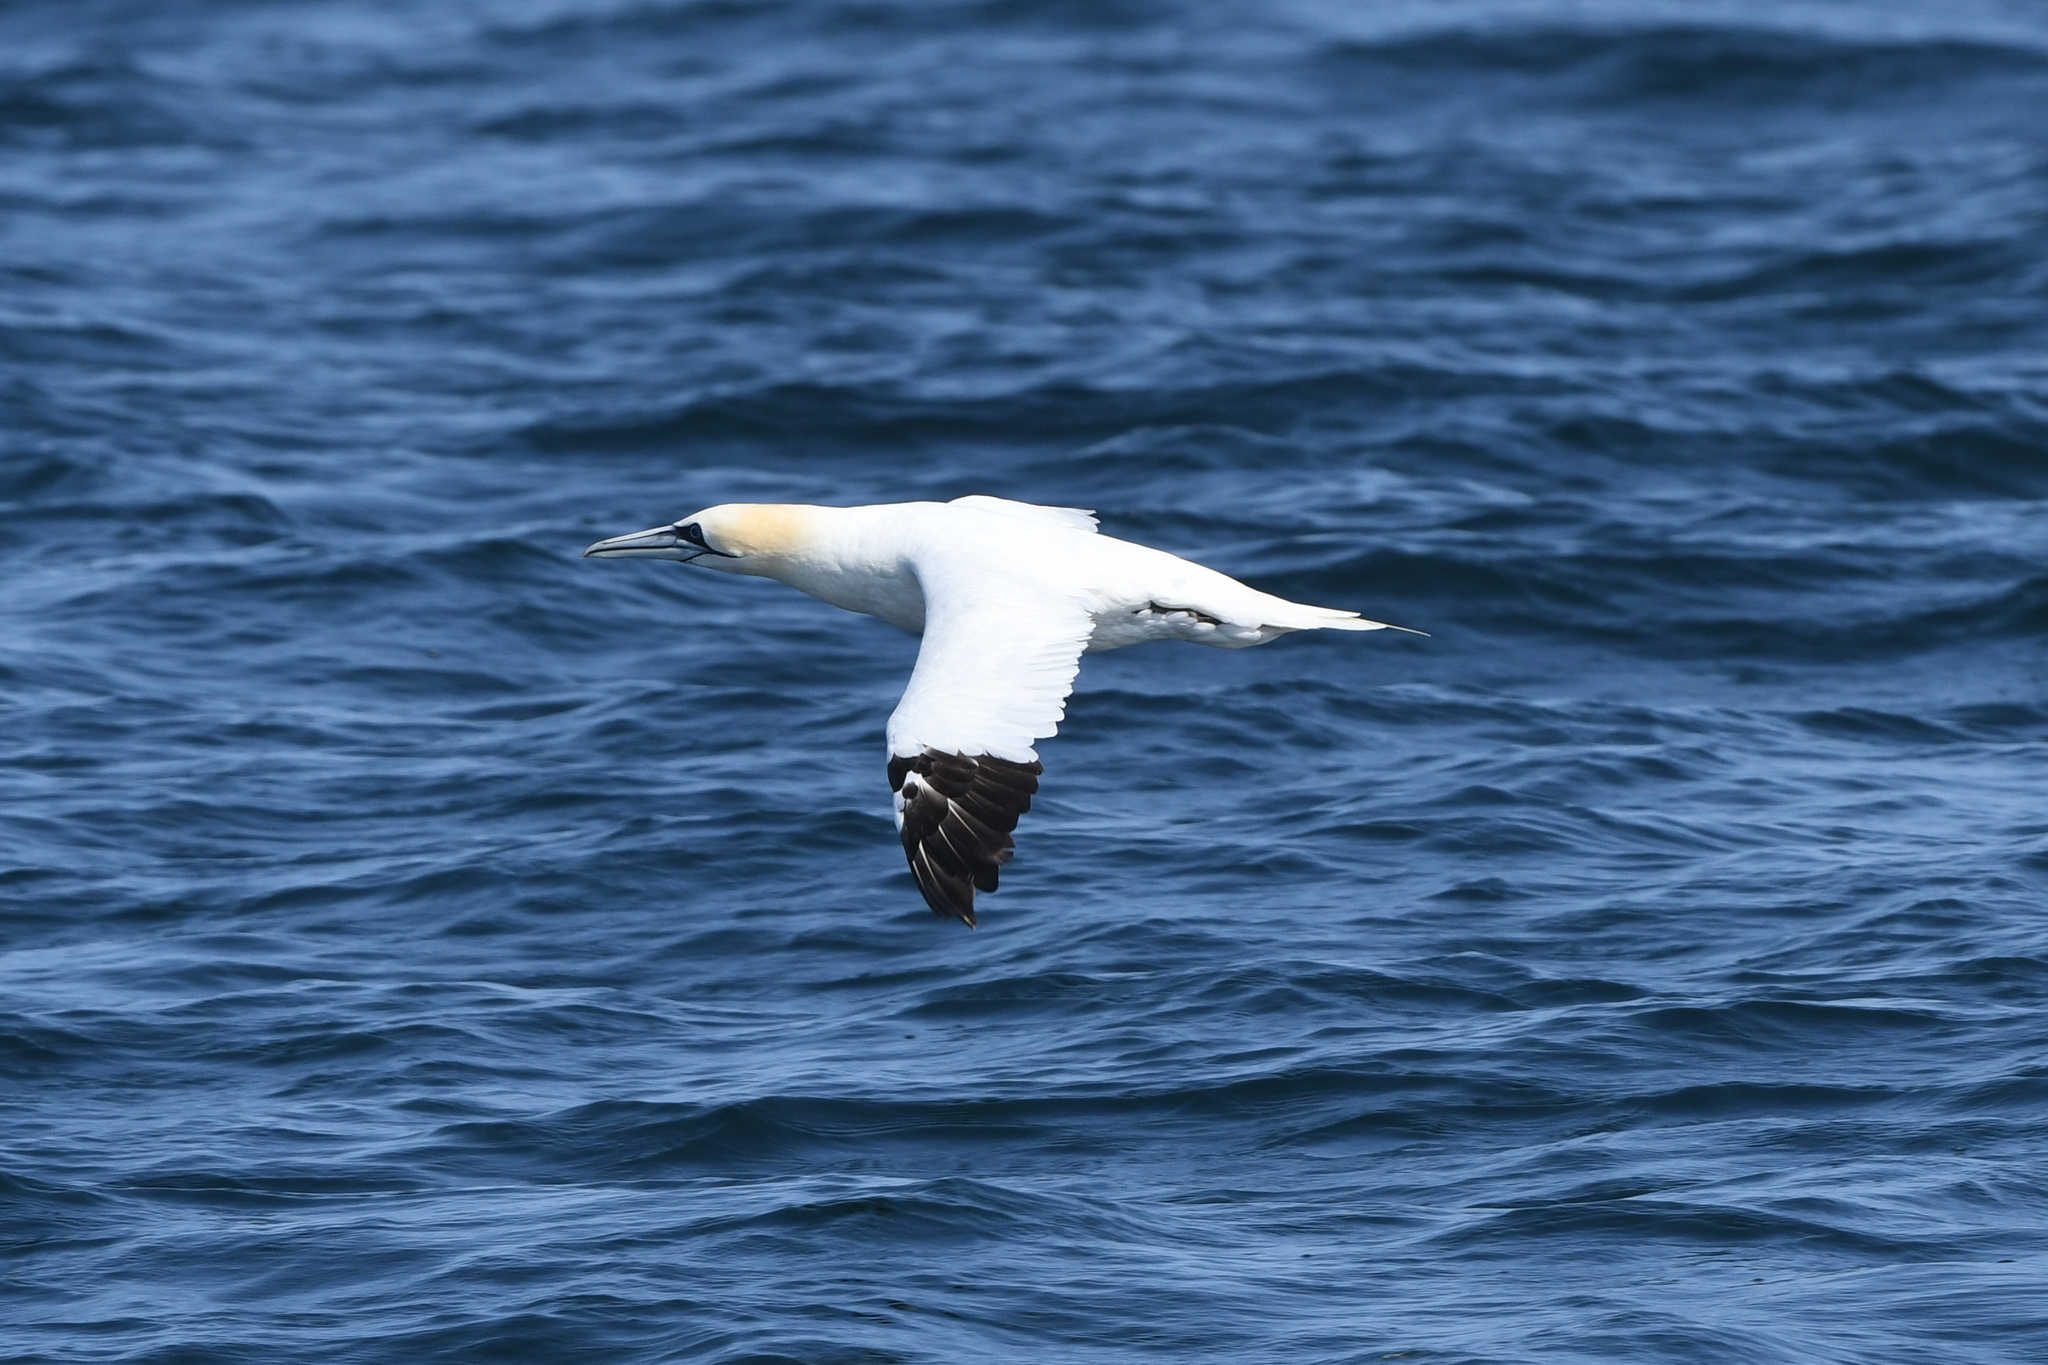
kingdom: Animalia
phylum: Chordata
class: Aves
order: Suliformes
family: Sulidae
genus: Morus
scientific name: Morus bassanus
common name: Northern gannet
